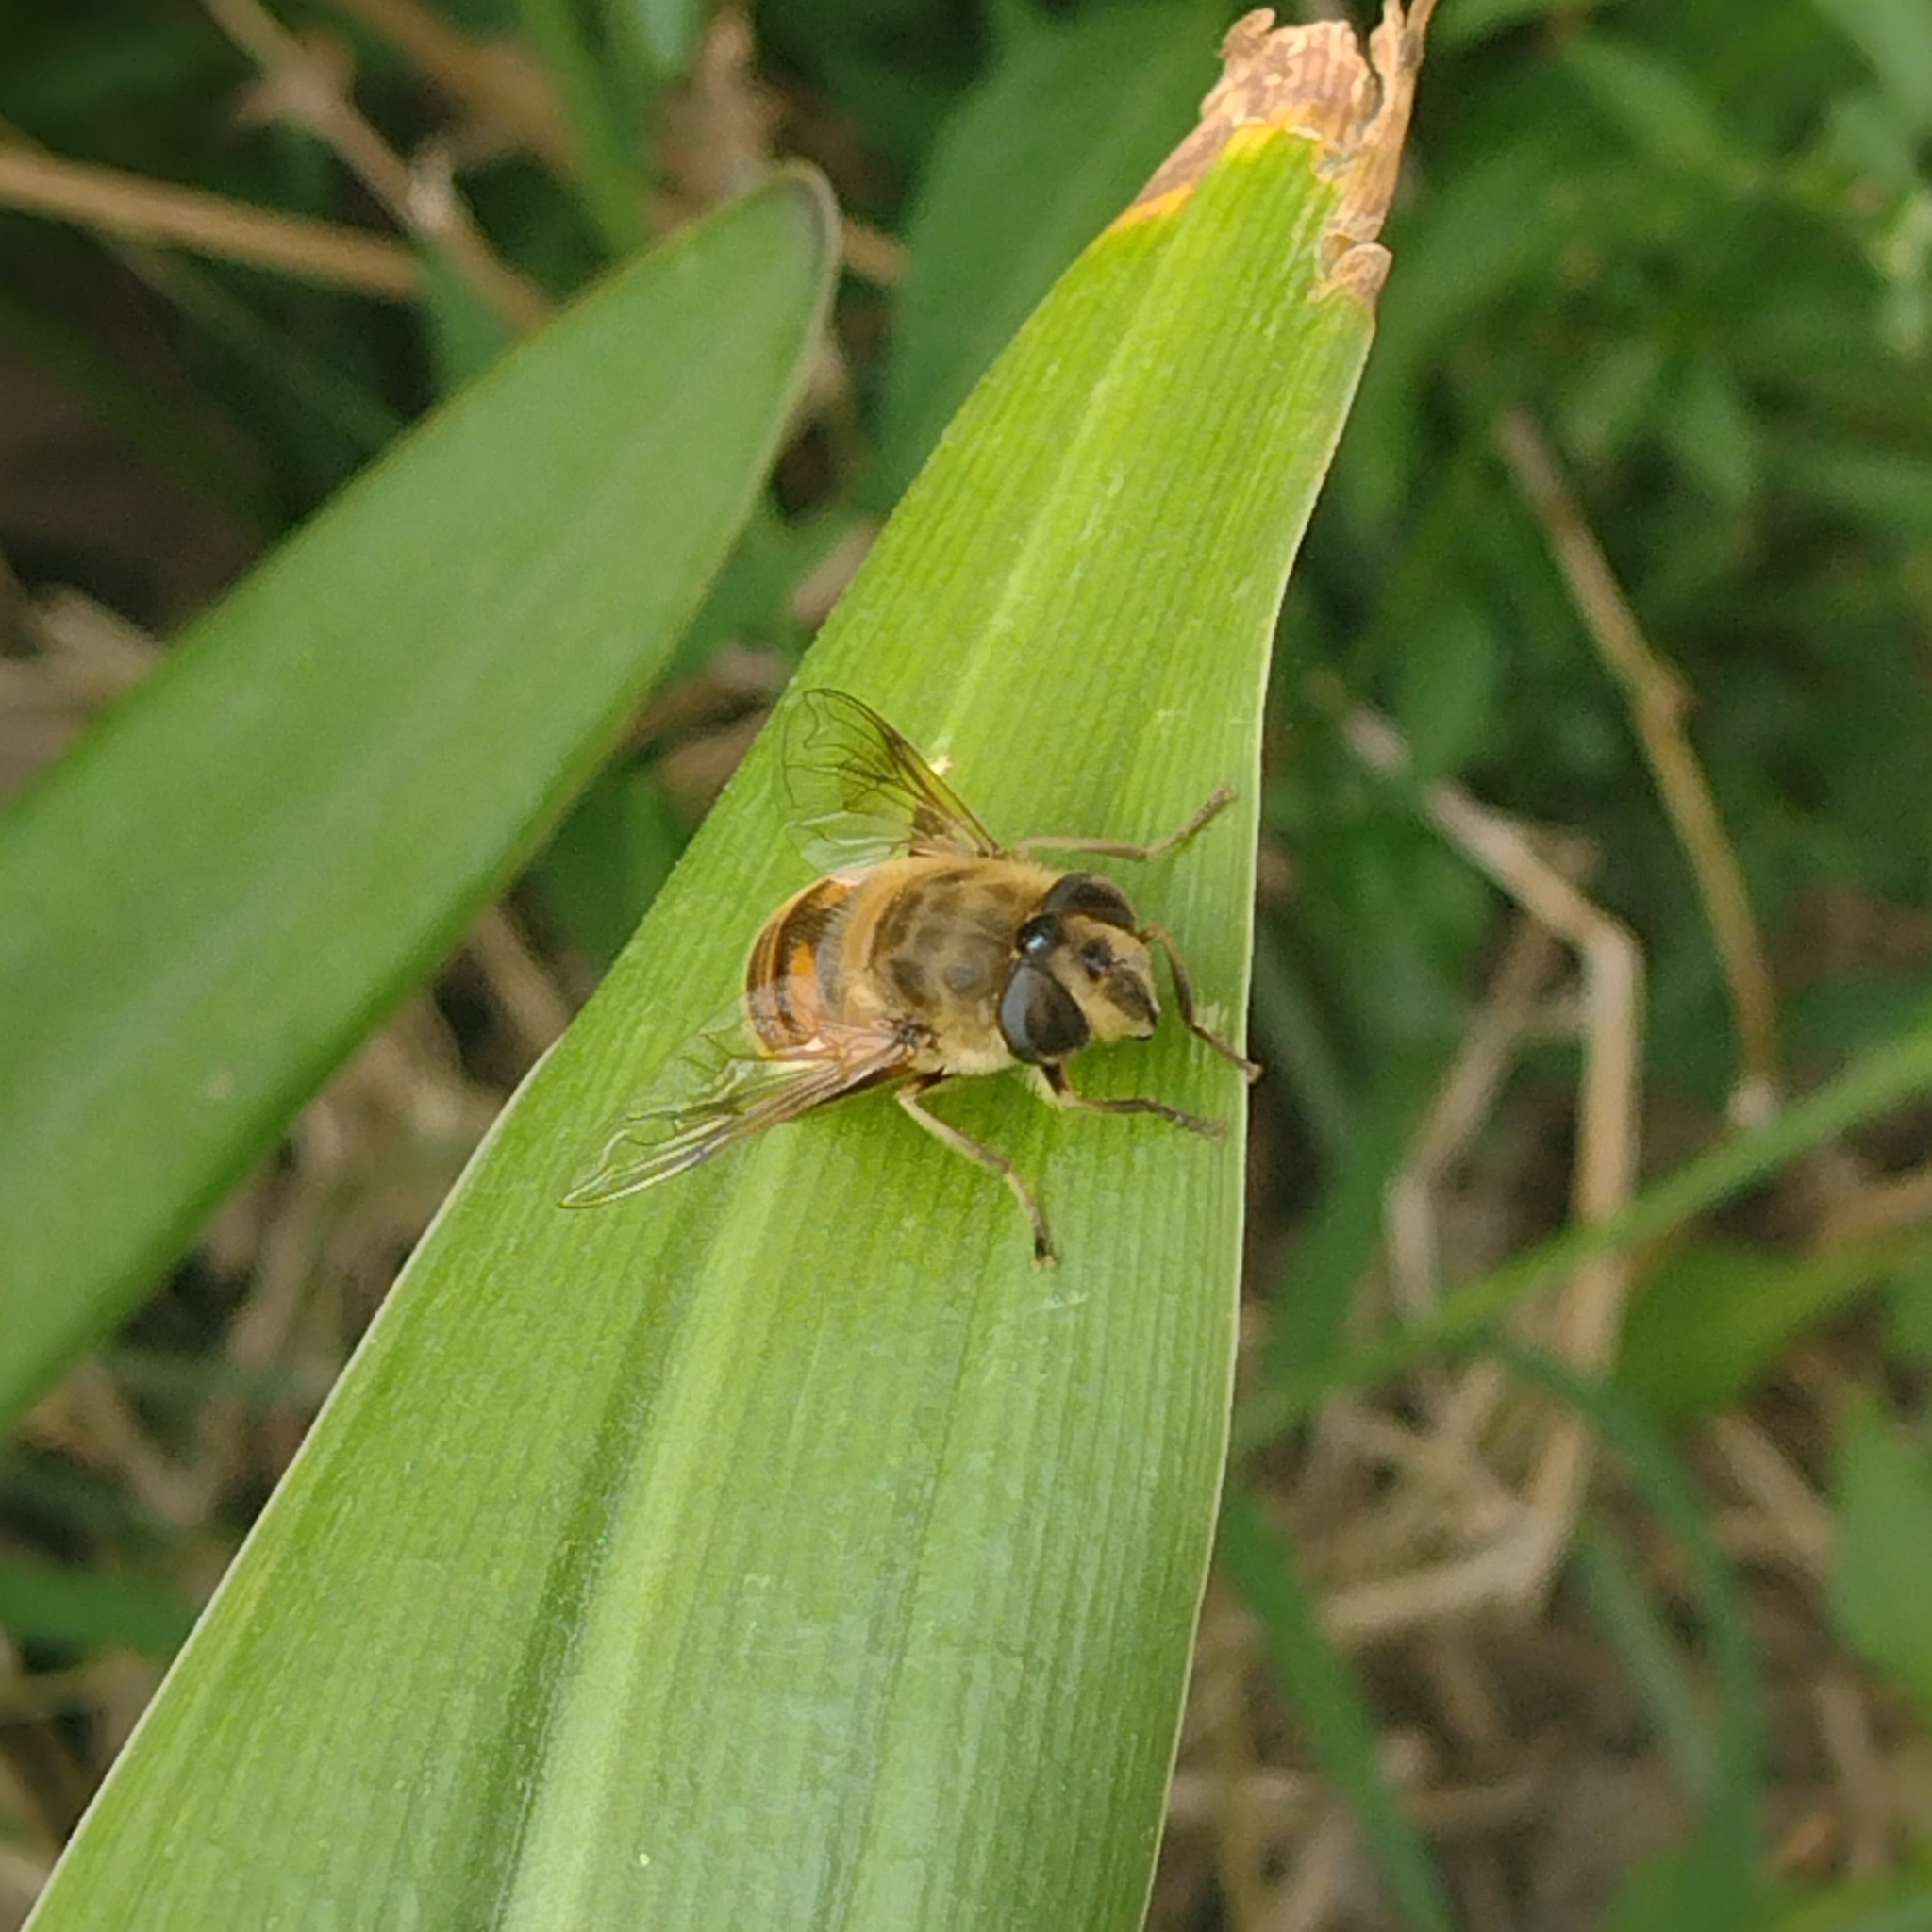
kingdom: Animalia
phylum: Arthropoda
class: Insecta
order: Diptera
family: Syrphidae
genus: Eristalis
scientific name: Eristalis tenax
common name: Drone fly
